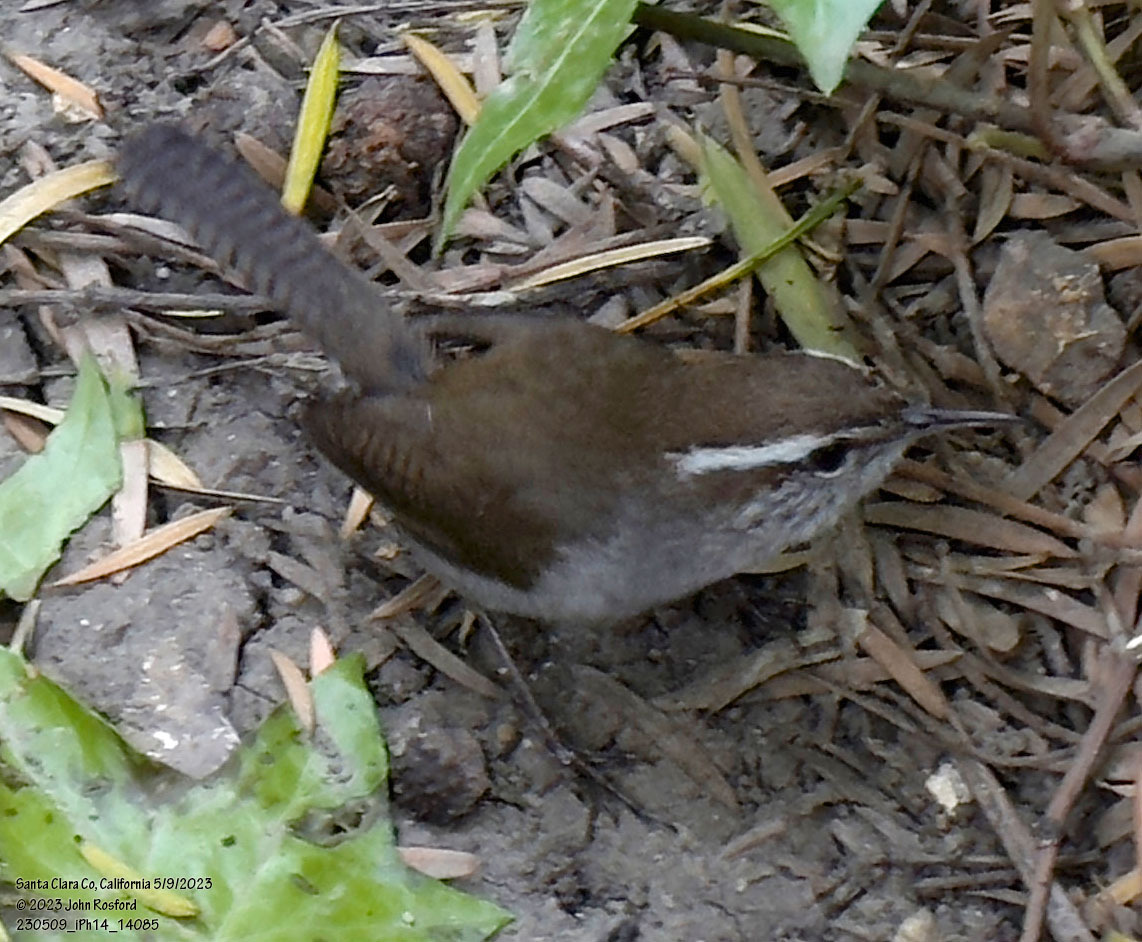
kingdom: Animalia
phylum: Chordata
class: Aves
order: Passeriformes
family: Troglodytidae
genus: Thryomanes
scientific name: Thryomanes bewickii
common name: Bewick's wren
